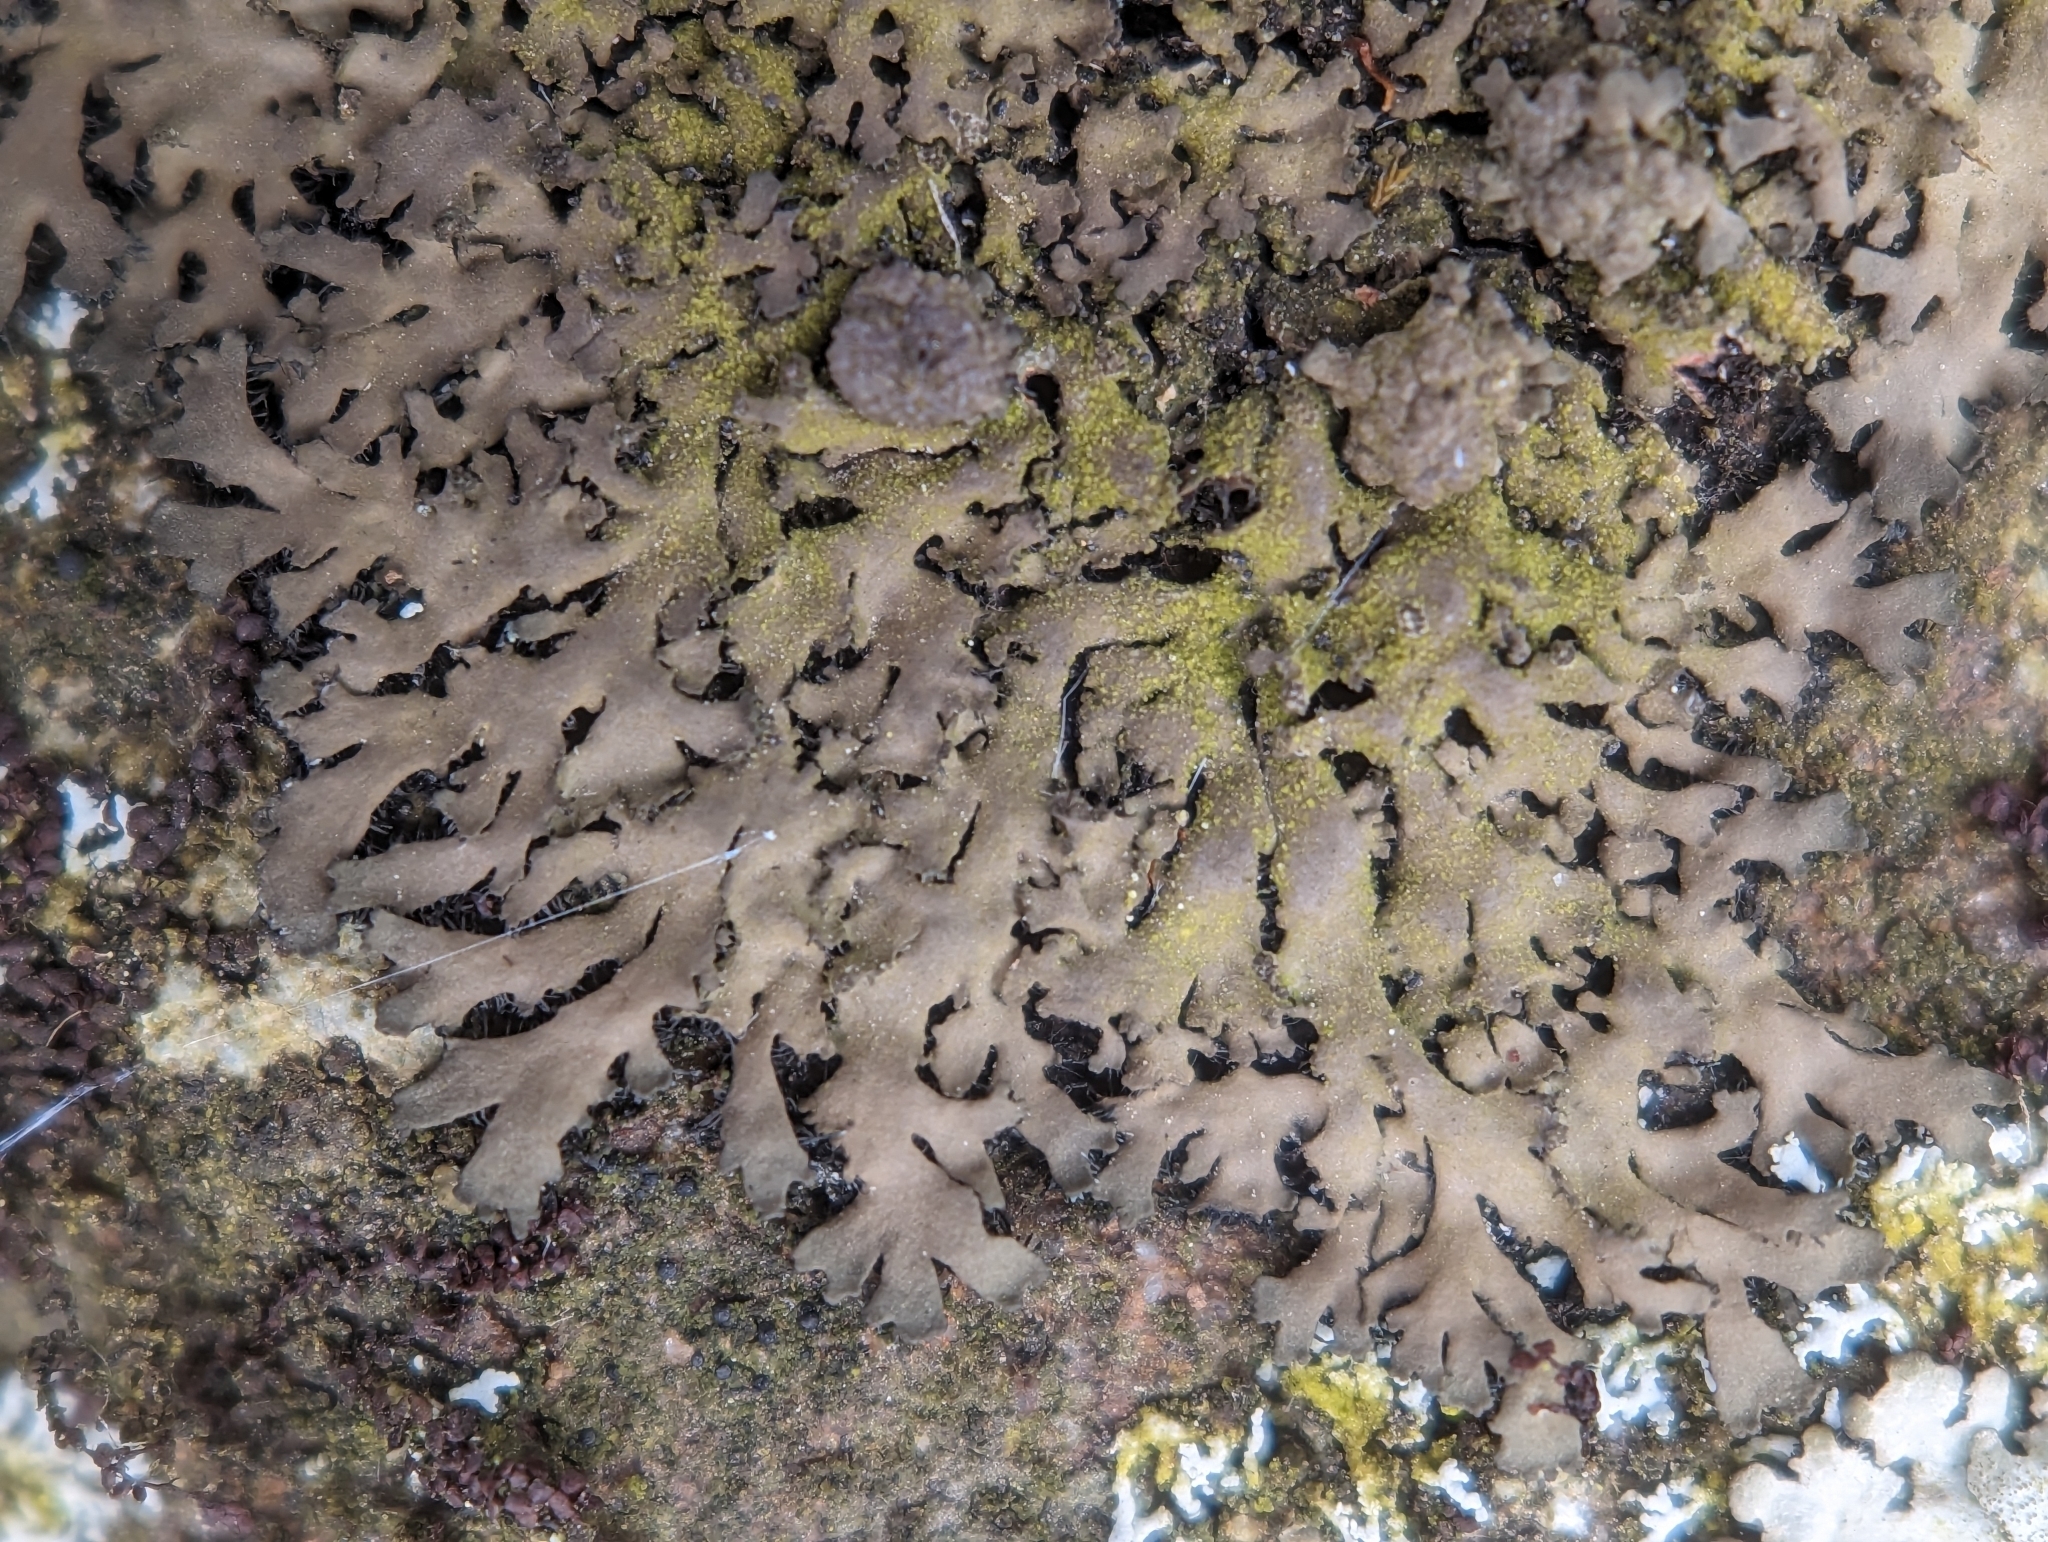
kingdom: Fungi
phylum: Ascomycota
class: Lecanoromycetes
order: Caliciales
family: Physciaceae
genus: Phaeophyscia
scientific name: Phaeophyscia rubropulchra
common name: Orange-cored shadow lichen
